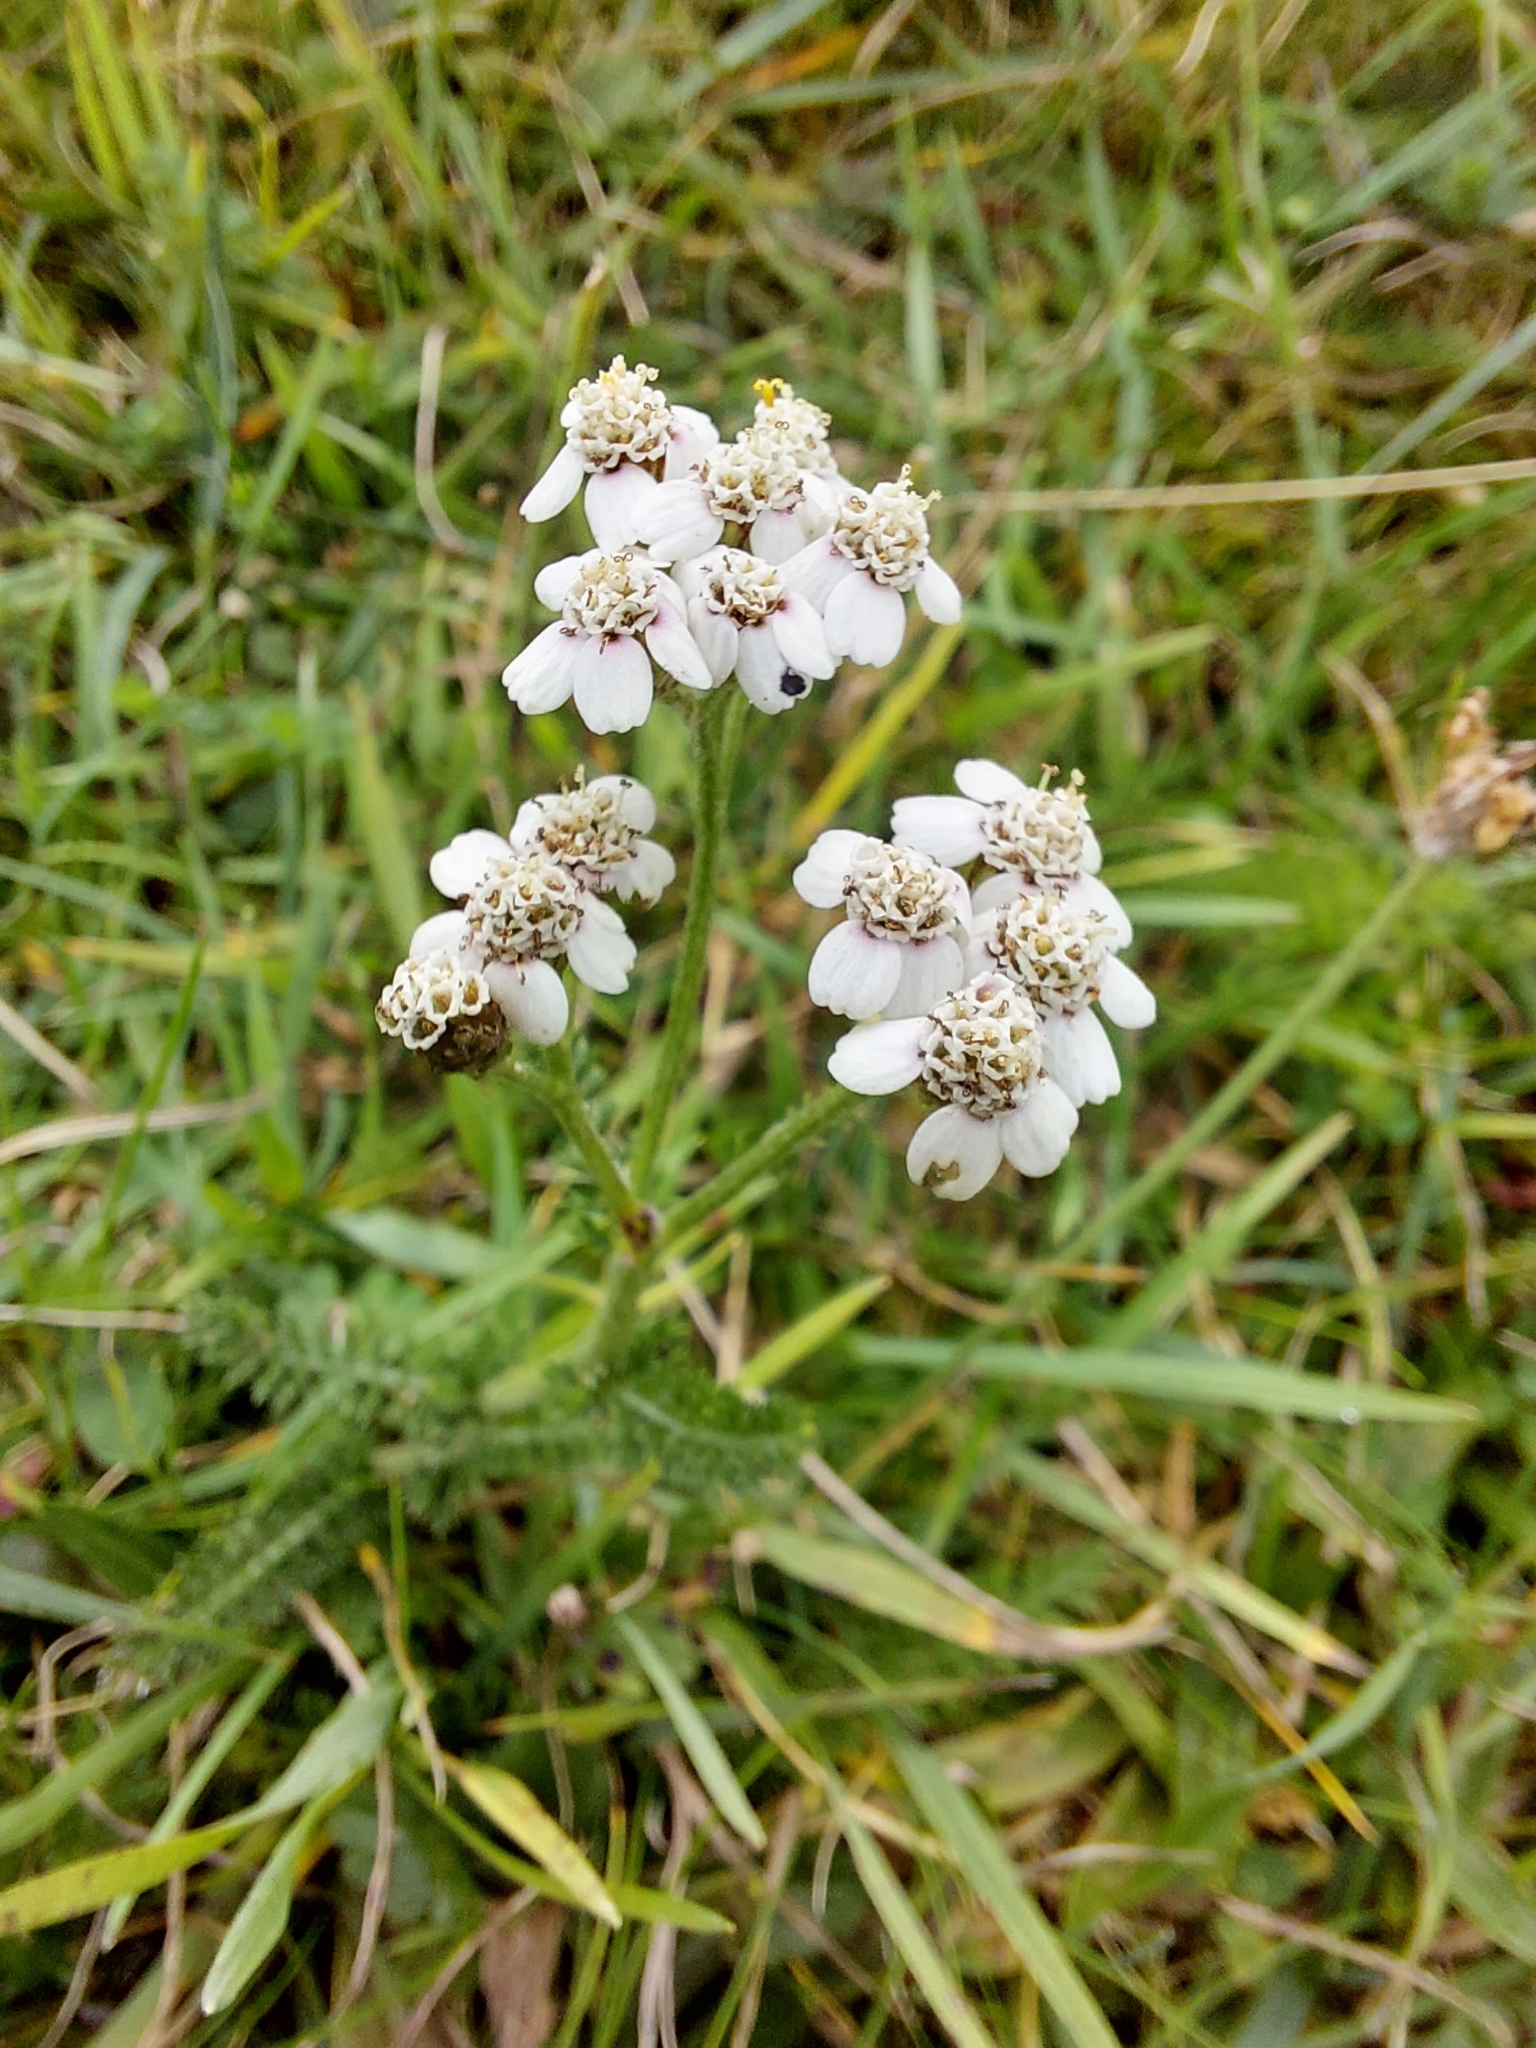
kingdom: Plantae
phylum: Tracheophyta
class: Magnoliopsida
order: Asterales
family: Asteraceae
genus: Achillea
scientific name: Achillea millefolium
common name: Yarrow
